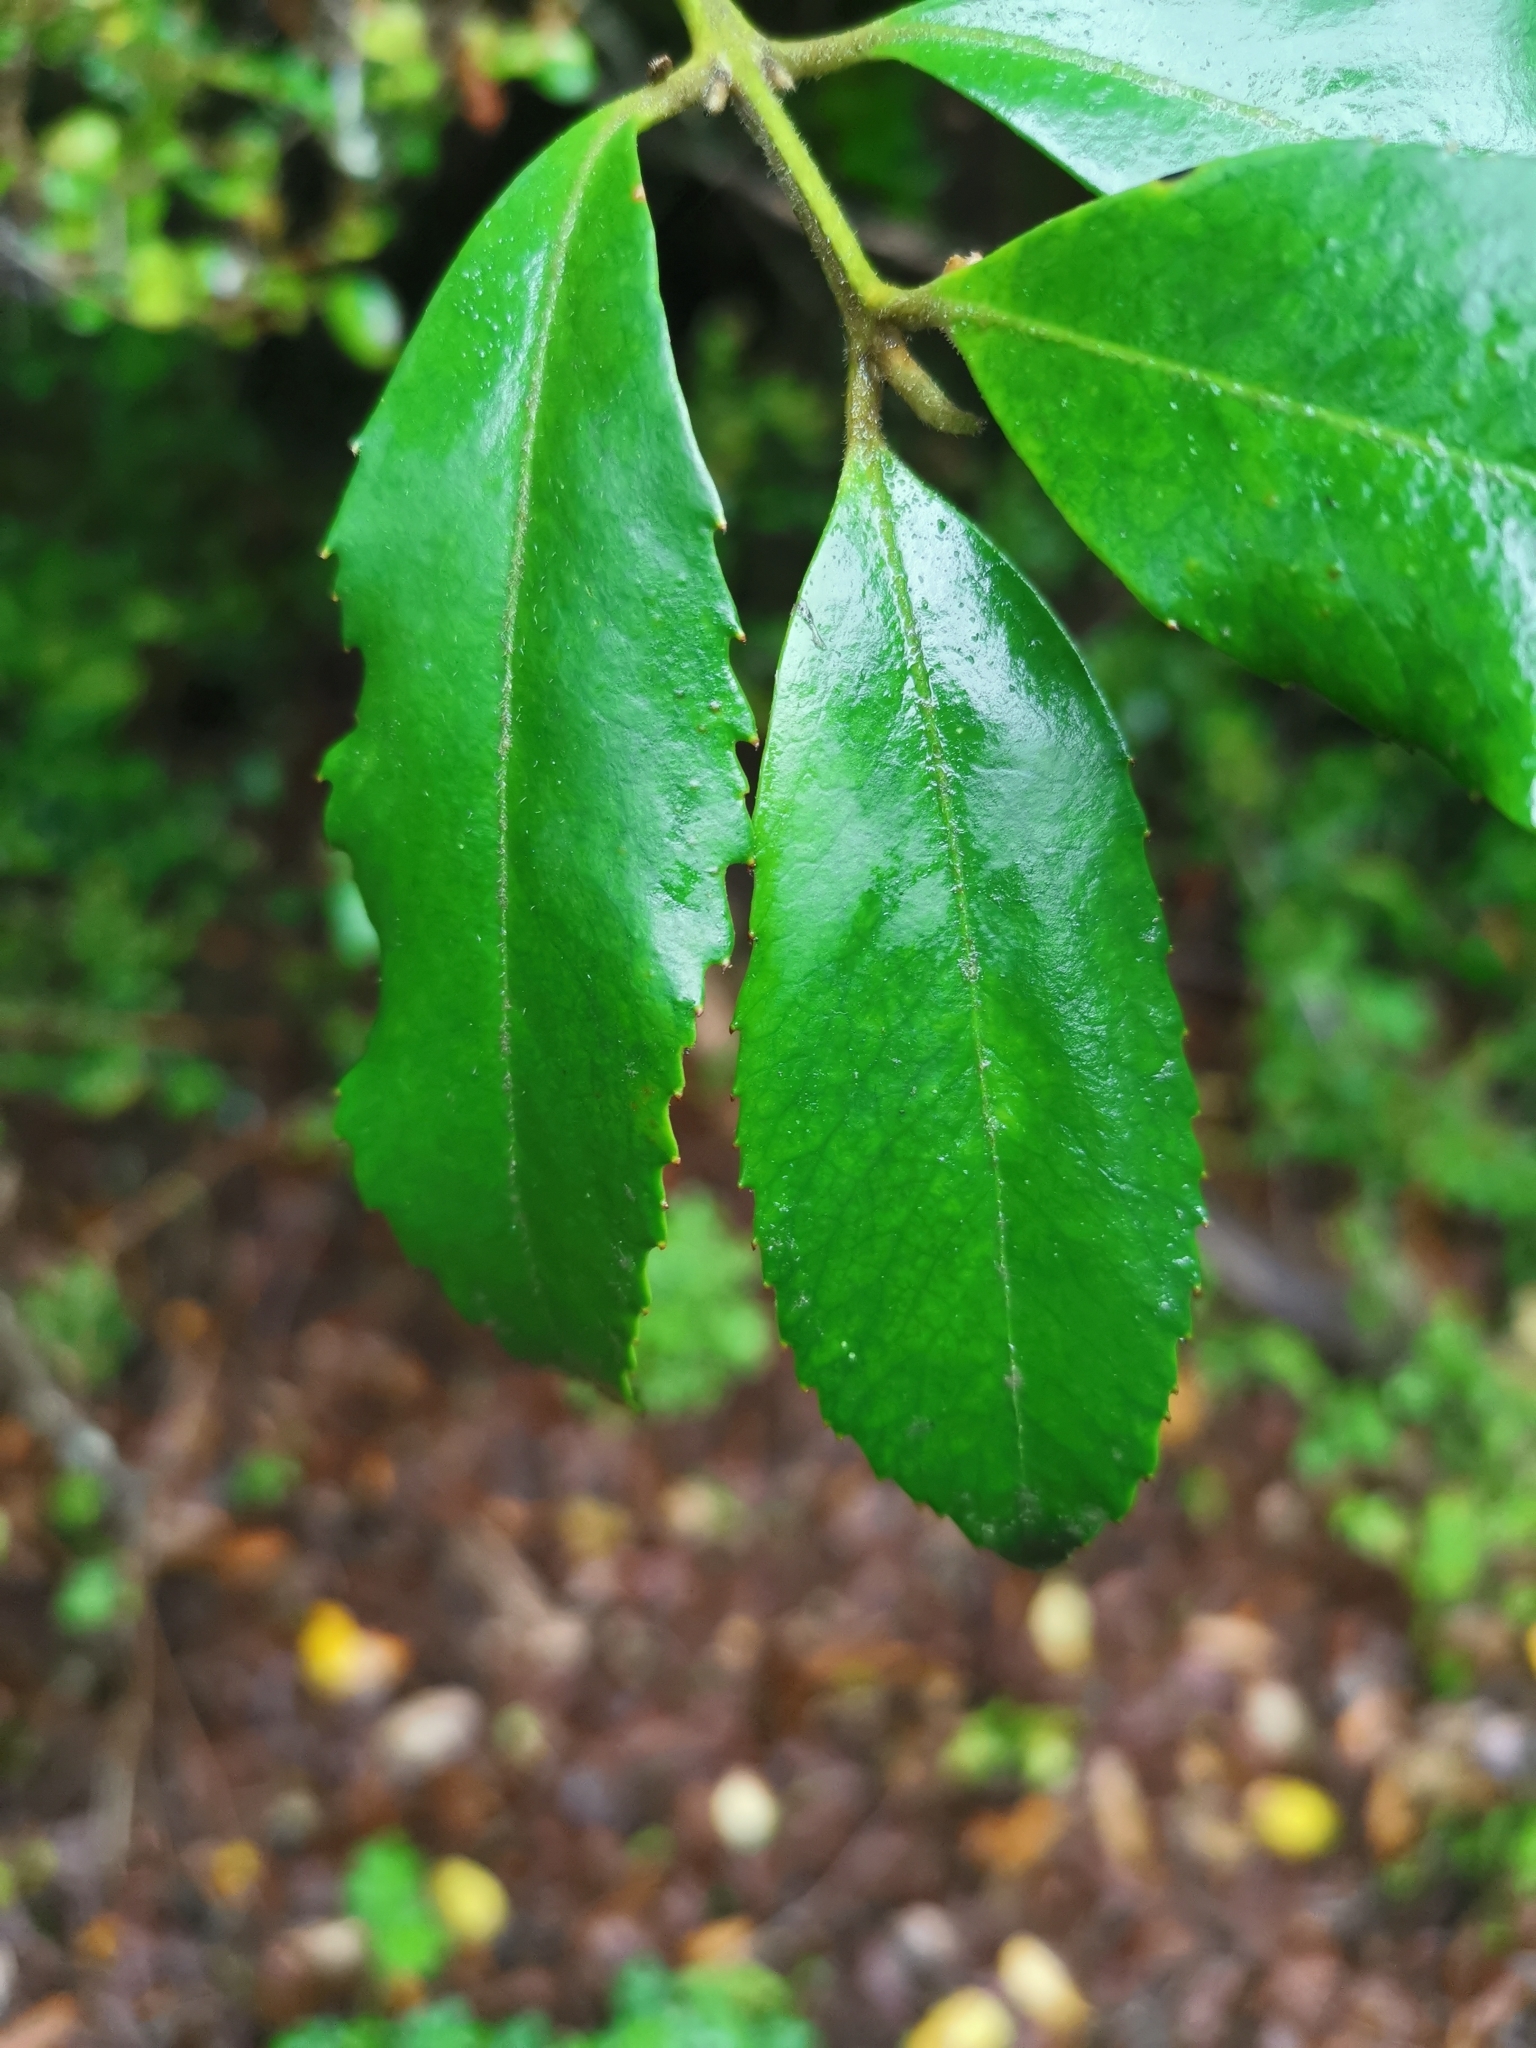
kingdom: Plantae
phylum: Tracheophyta
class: Magnoliopsida
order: Laurales
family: Atherospermataceae
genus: Laureliopsis
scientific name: Laureliopsis philippiana
